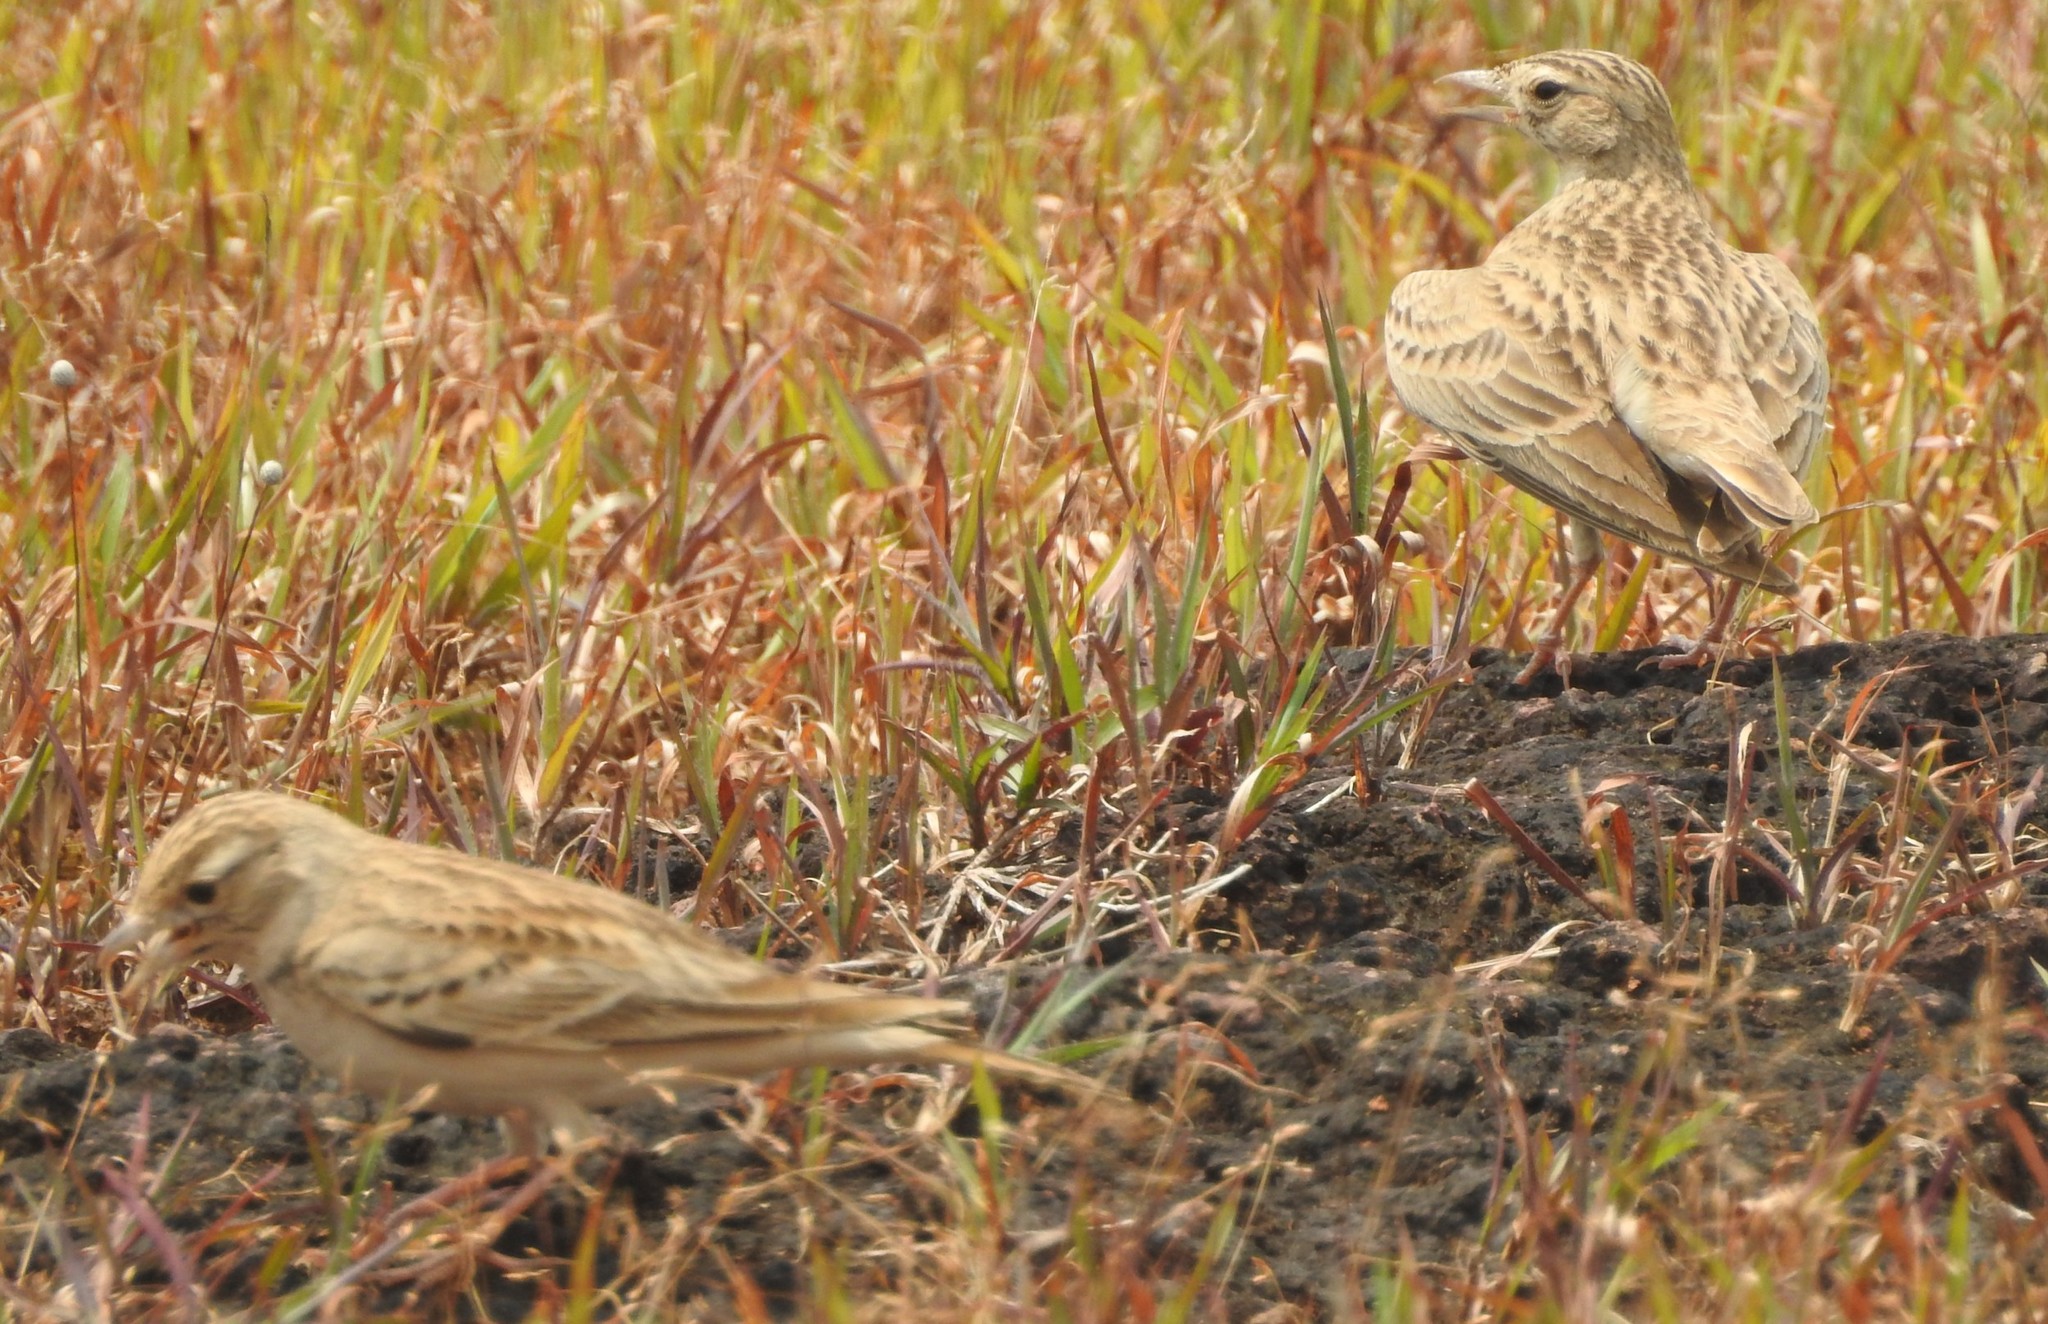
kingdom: Animalia
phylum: Chordata
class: Aves
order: Passeriformes
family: Alaudidae
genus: Calandrella
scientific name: Calandrella brachydactyla
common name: Greater short-toed lark
